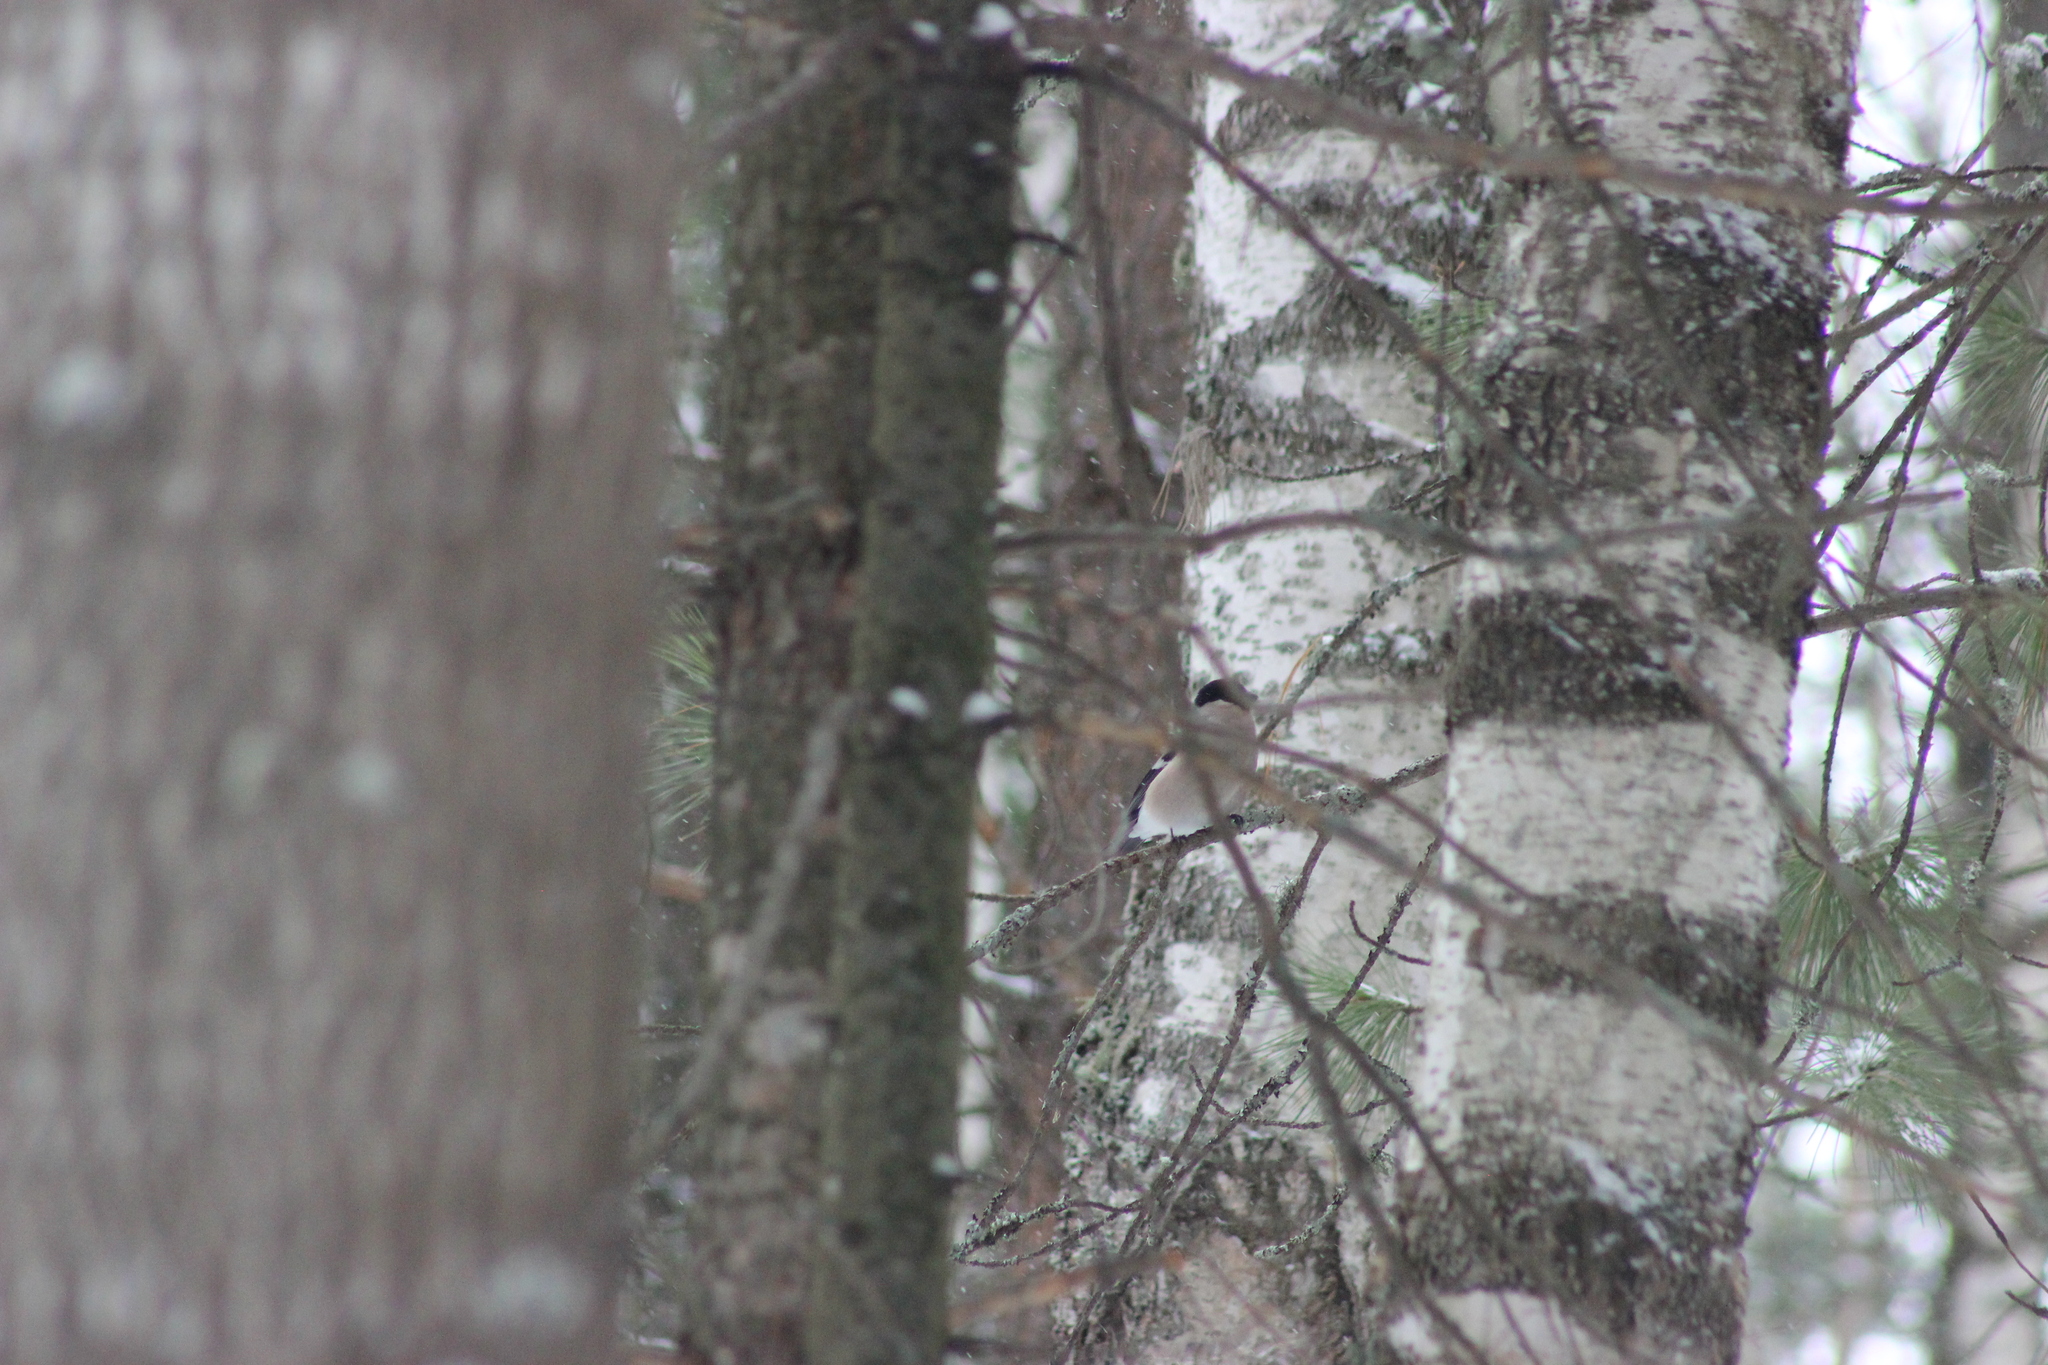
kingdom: Animalia
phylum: Chordata
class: Aves
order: Passeriformes
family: Fringillidae
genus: Pyrrhula
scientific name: Pyrrhula pyrrhula
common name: Eurasian bullfinch
